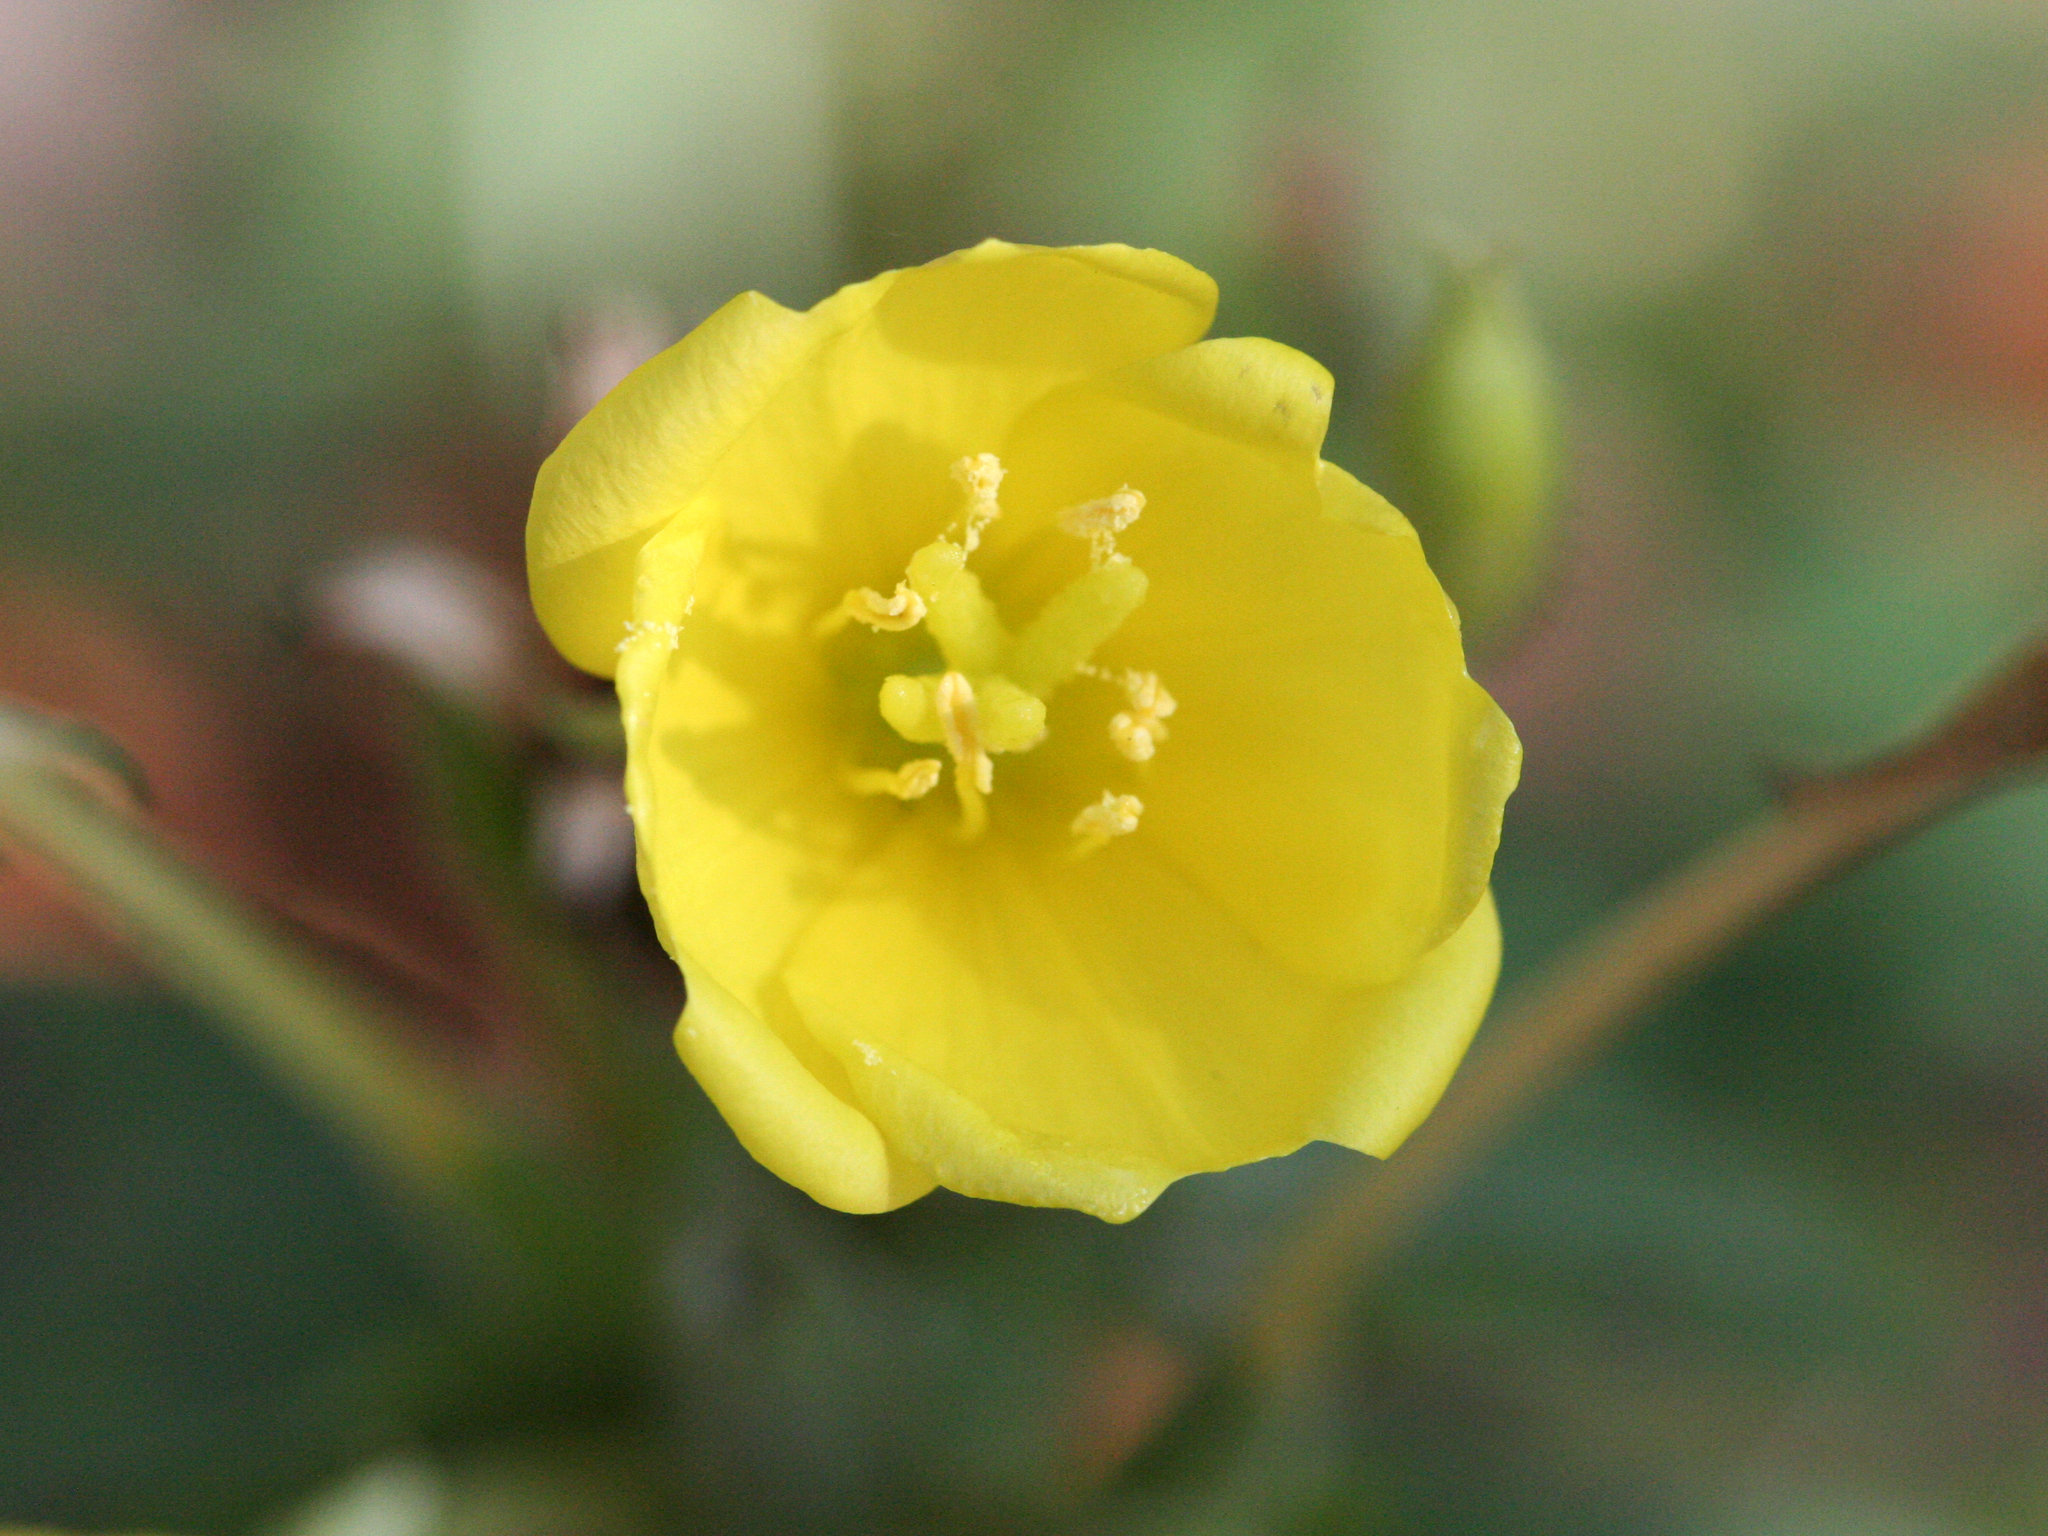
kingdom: Plantae
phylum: Tracheophyta
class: Magnoliopsida
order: Myrtales
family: Onagraceae
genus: Oenothera
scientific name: Oenothera biennis
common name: Common evening-primrose
